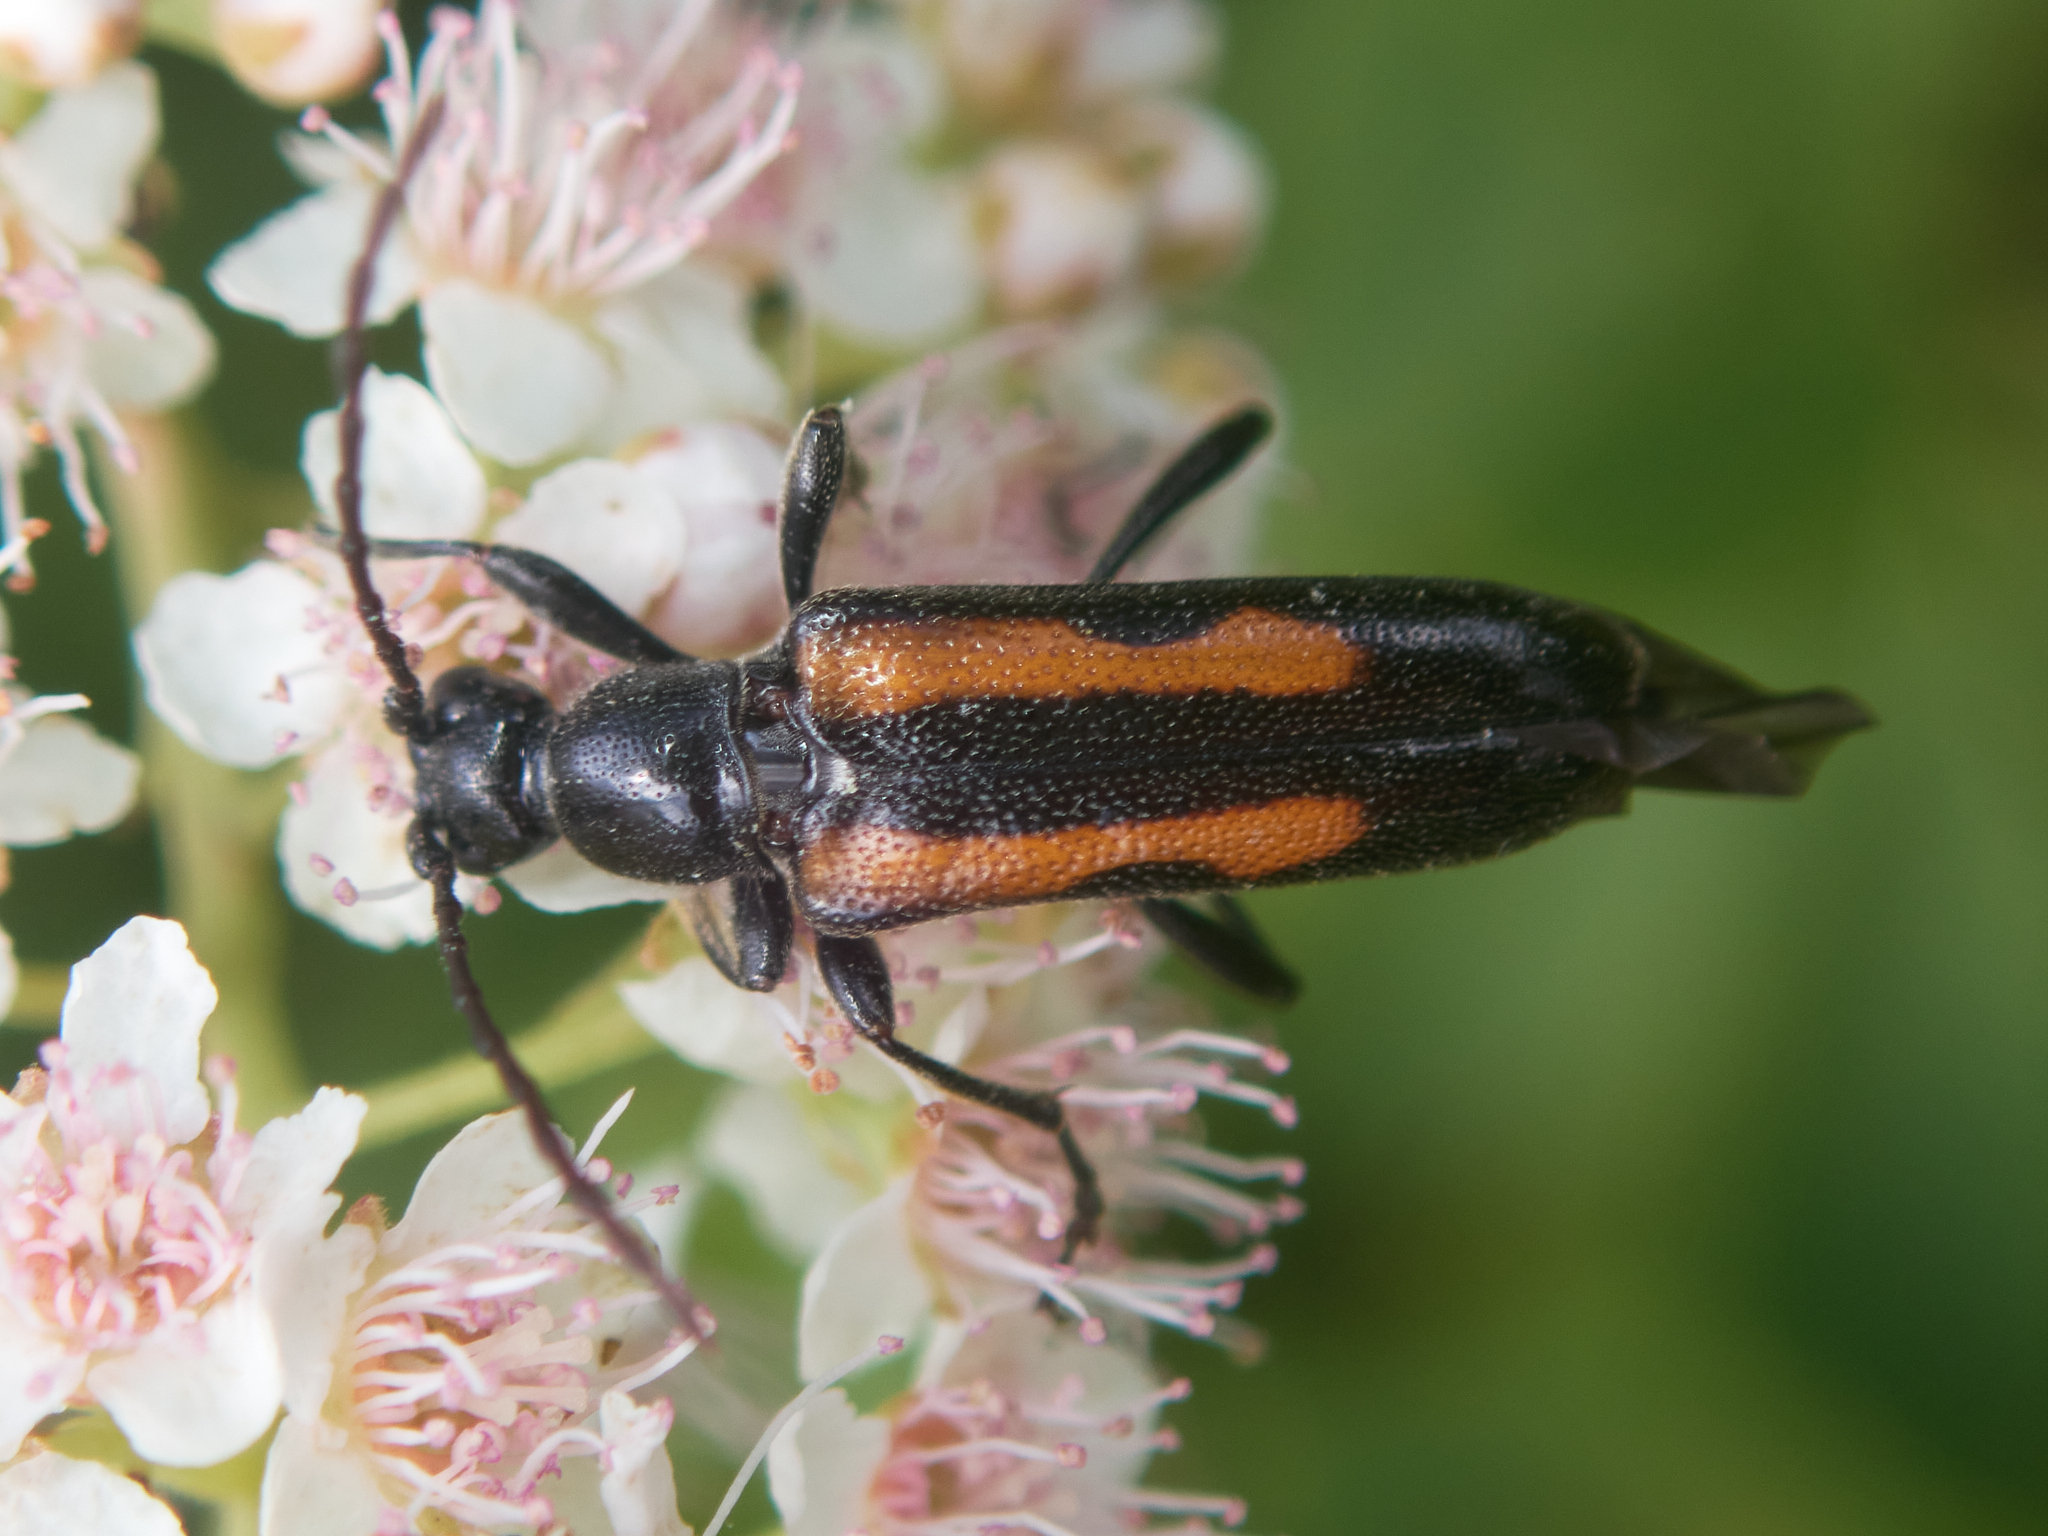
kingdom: Animalia
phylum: Arthropoda
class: Insecta
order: Coleoptera
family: Cerambycidae
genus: Strangalepta
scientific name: Strangalepta abbreviata
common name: Strangalepta flower longhorn beetle
